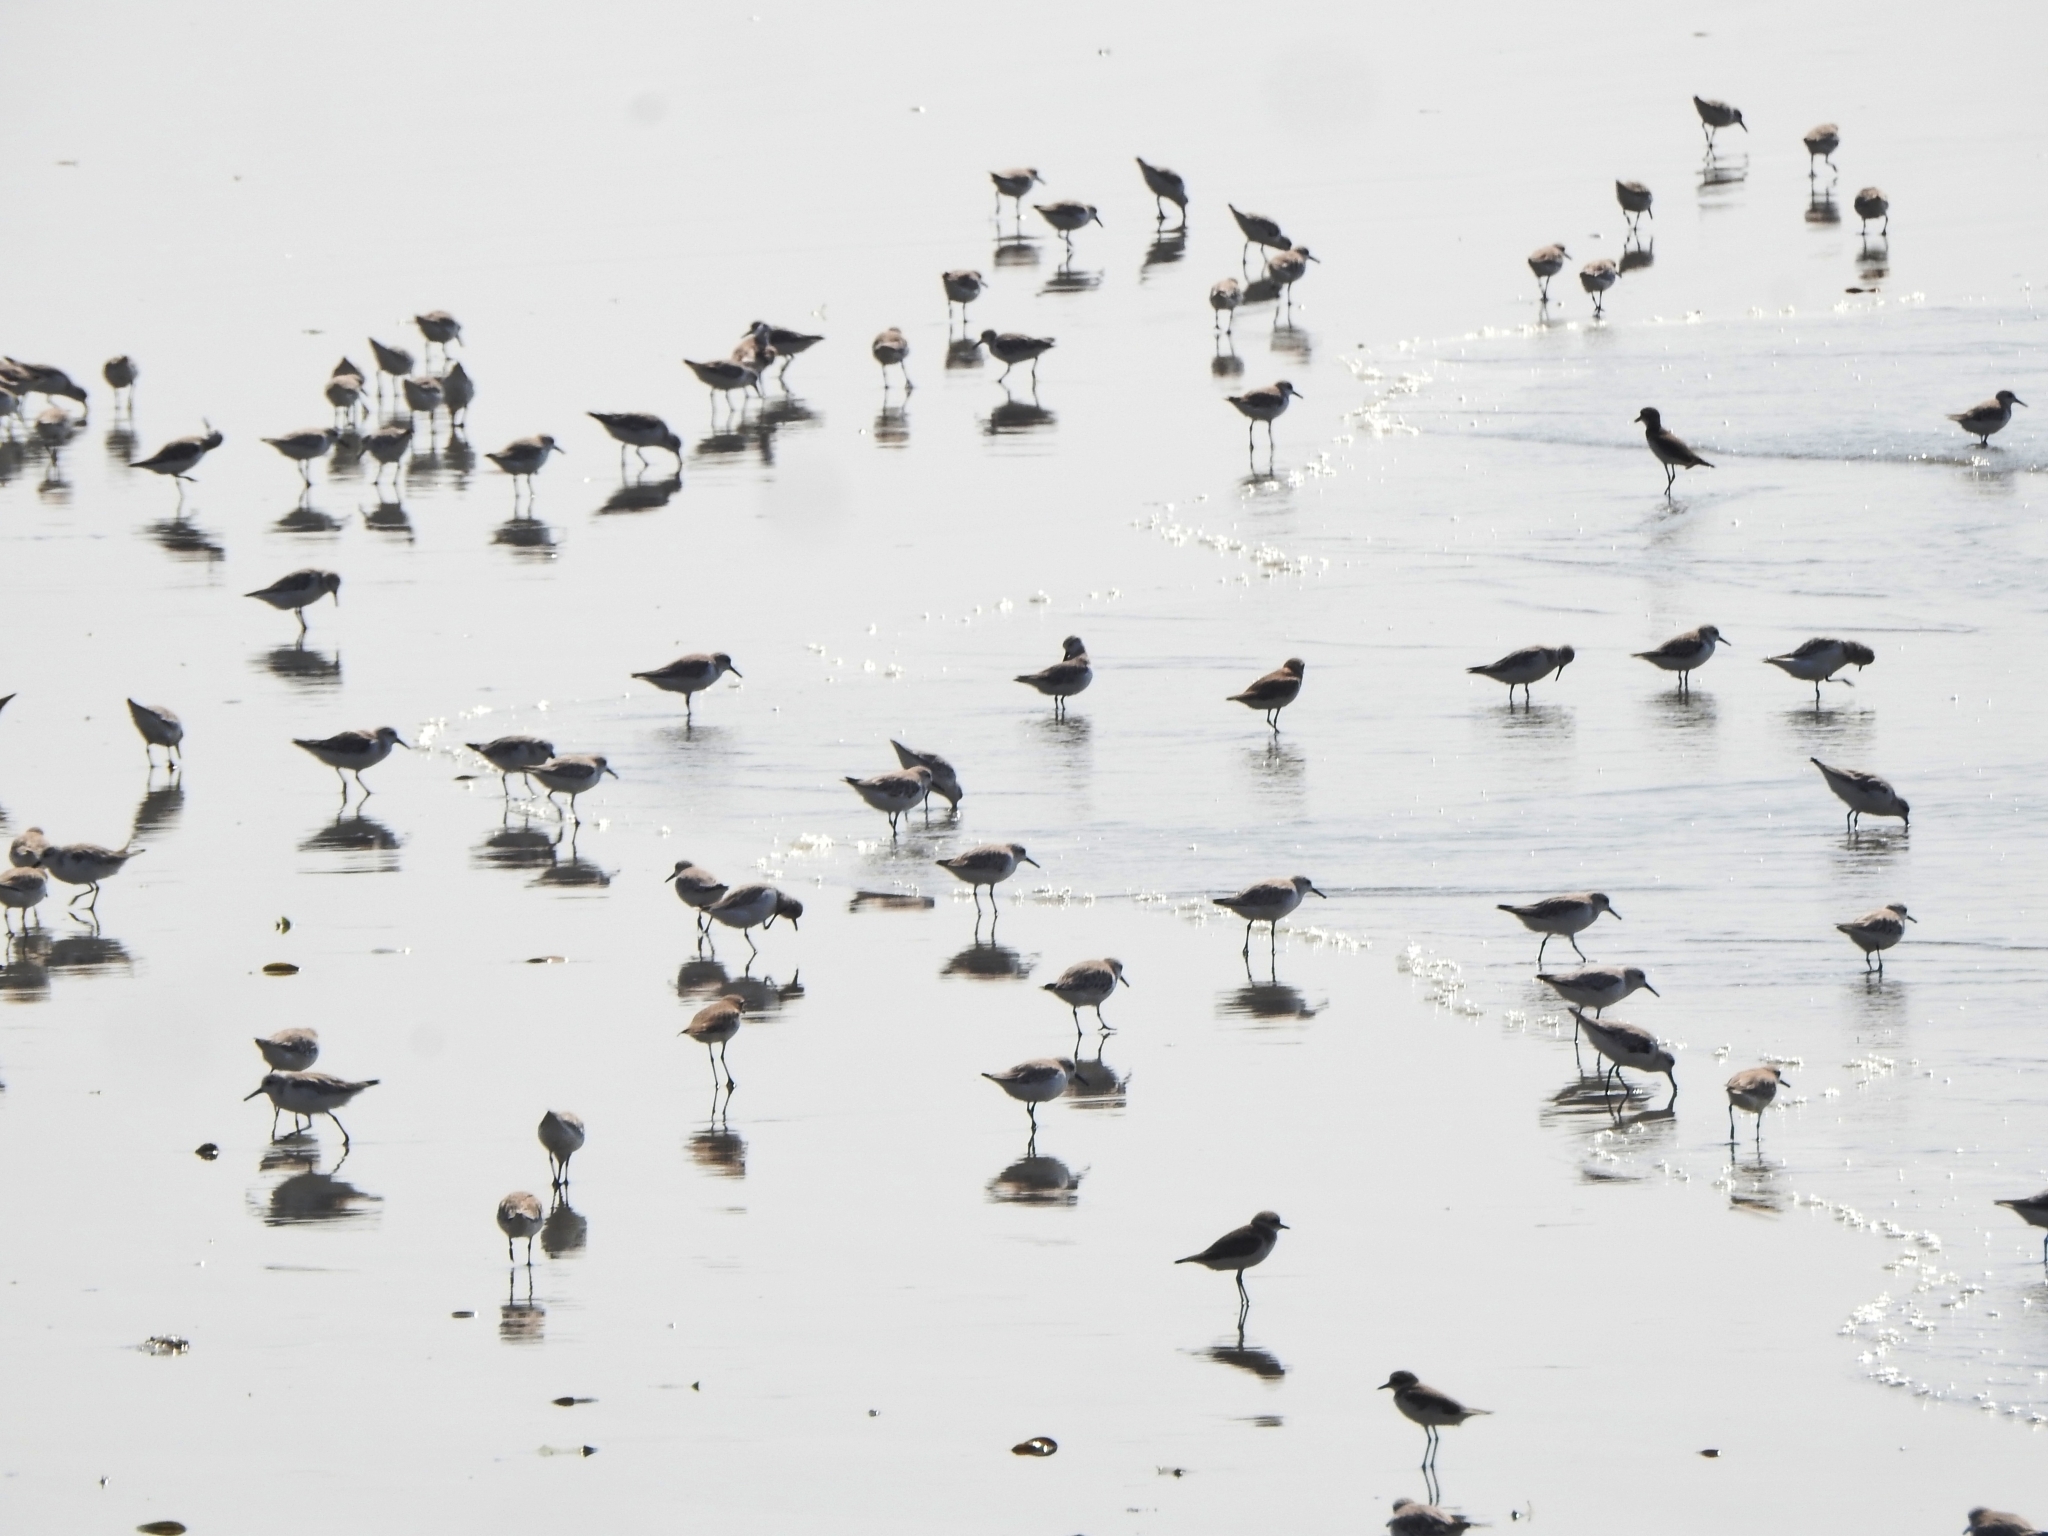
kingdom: Animalia
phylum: Chordata
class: Aves
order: Charadriiformes
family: Scolopacidae
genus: Calidris
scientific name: Calidris alba
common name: Sanderling
